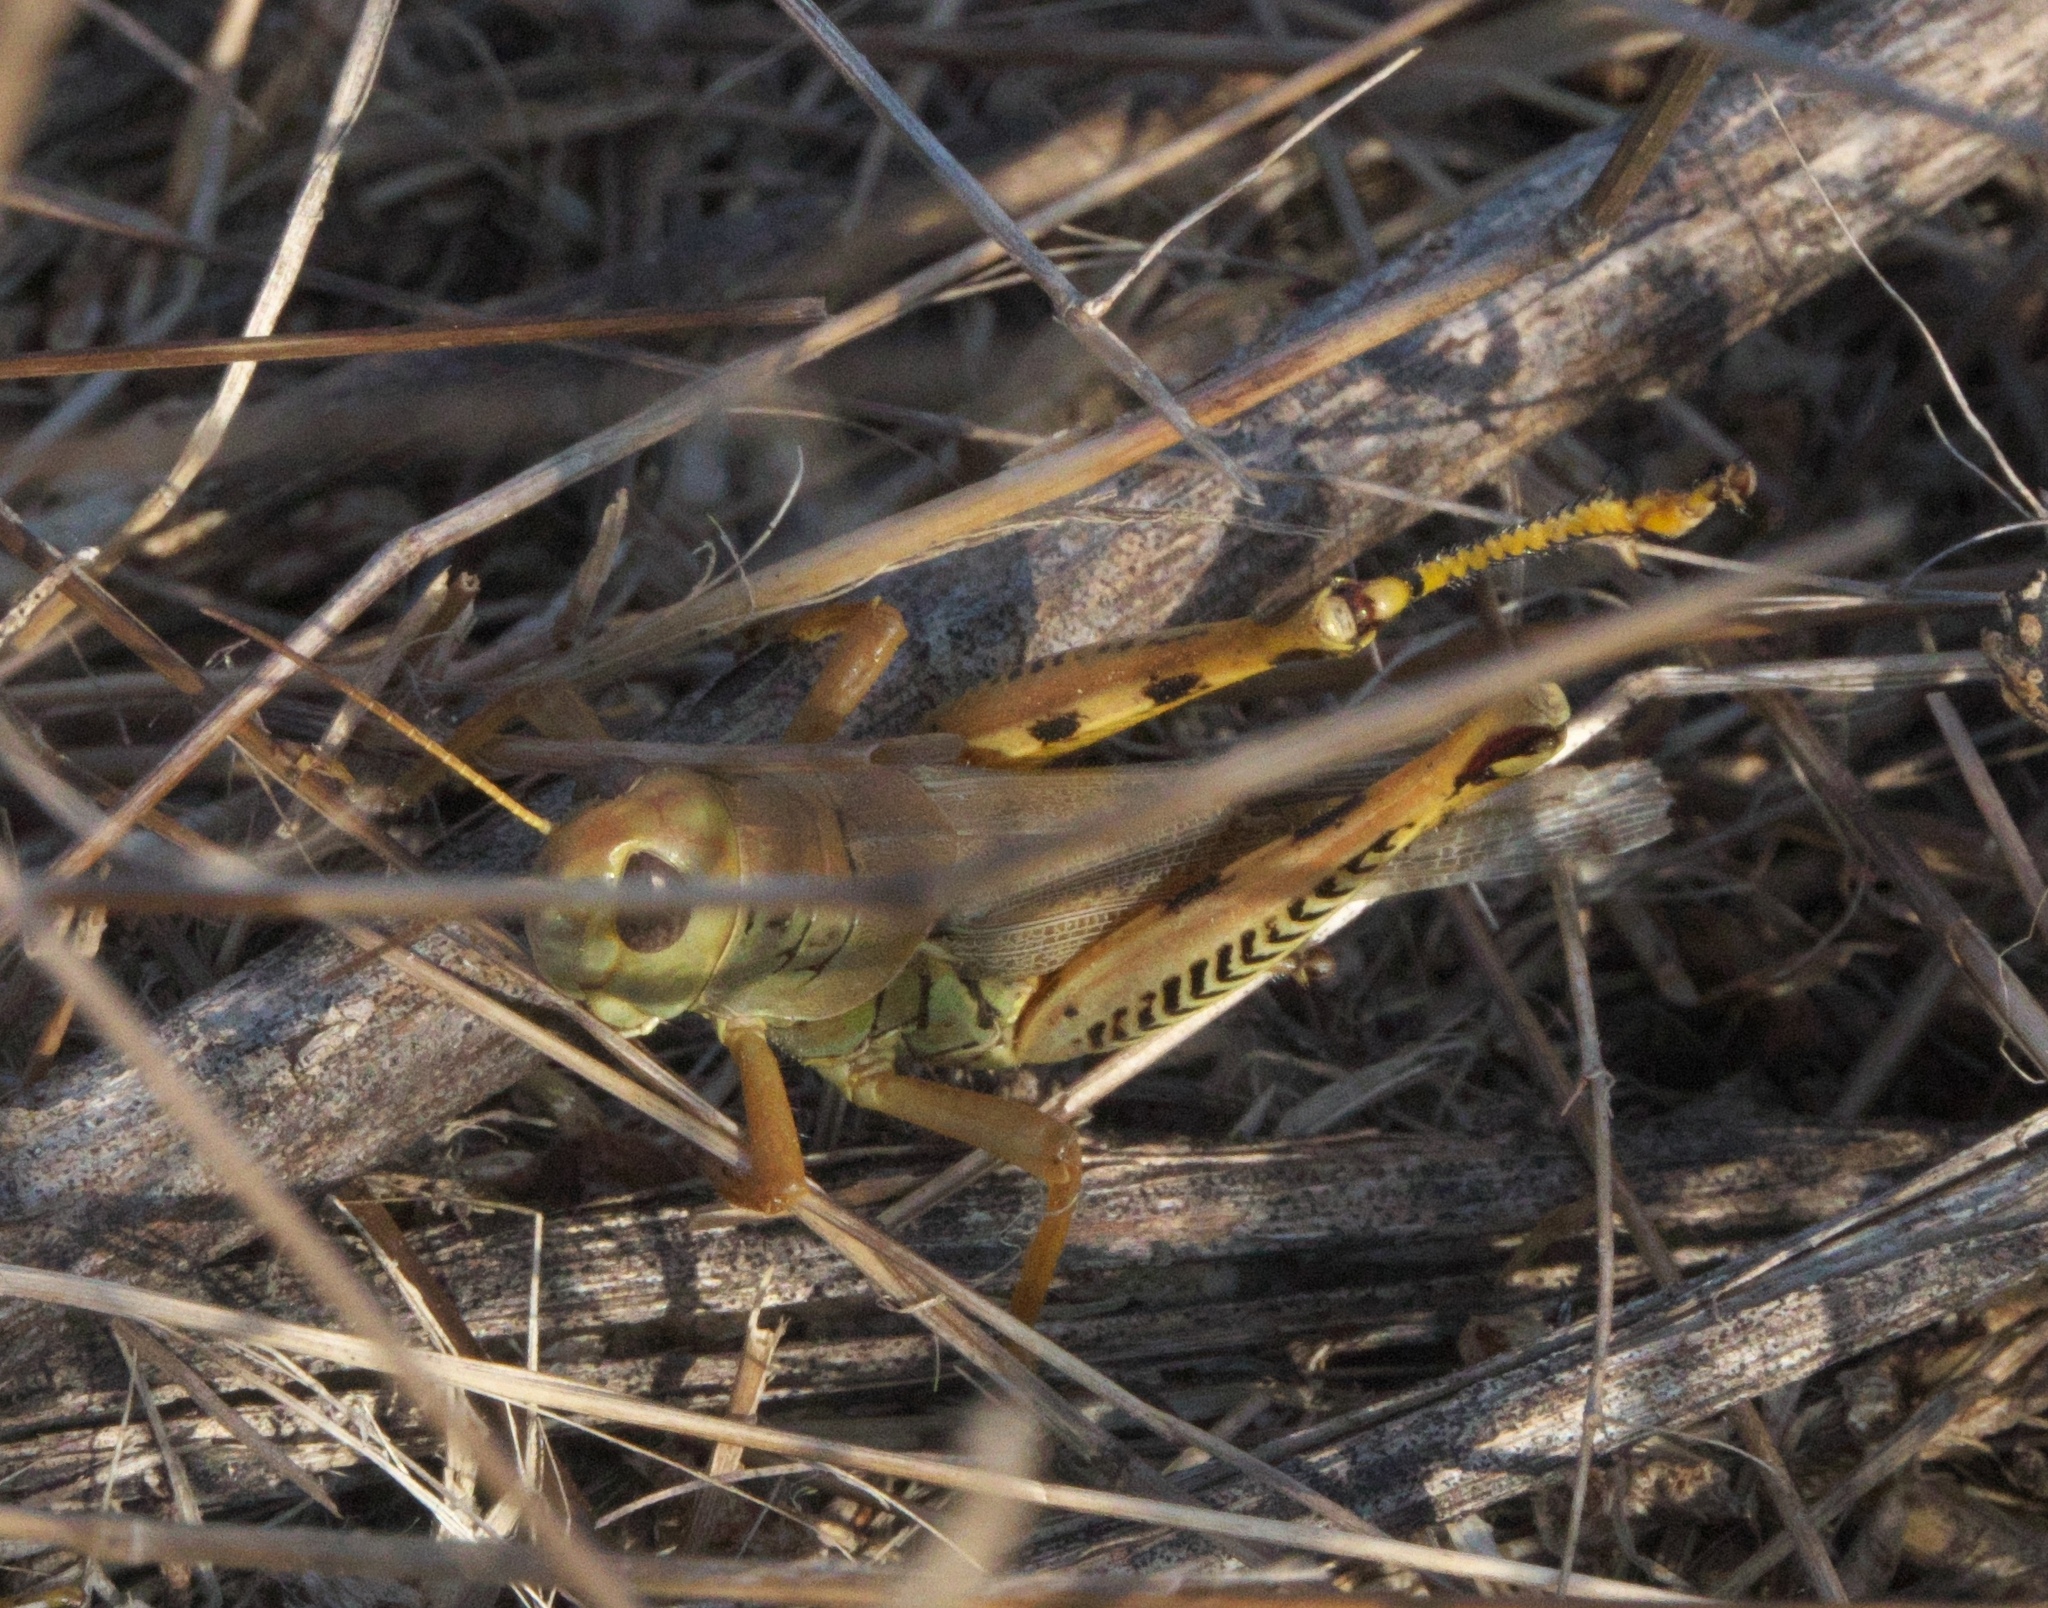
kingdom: Animalia
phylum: Arthropoda
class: Insecta
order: Orthoptera
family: Acrididae
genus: Melanoplus
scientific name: Melanoplus differentialis
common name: Differential grasshopper
